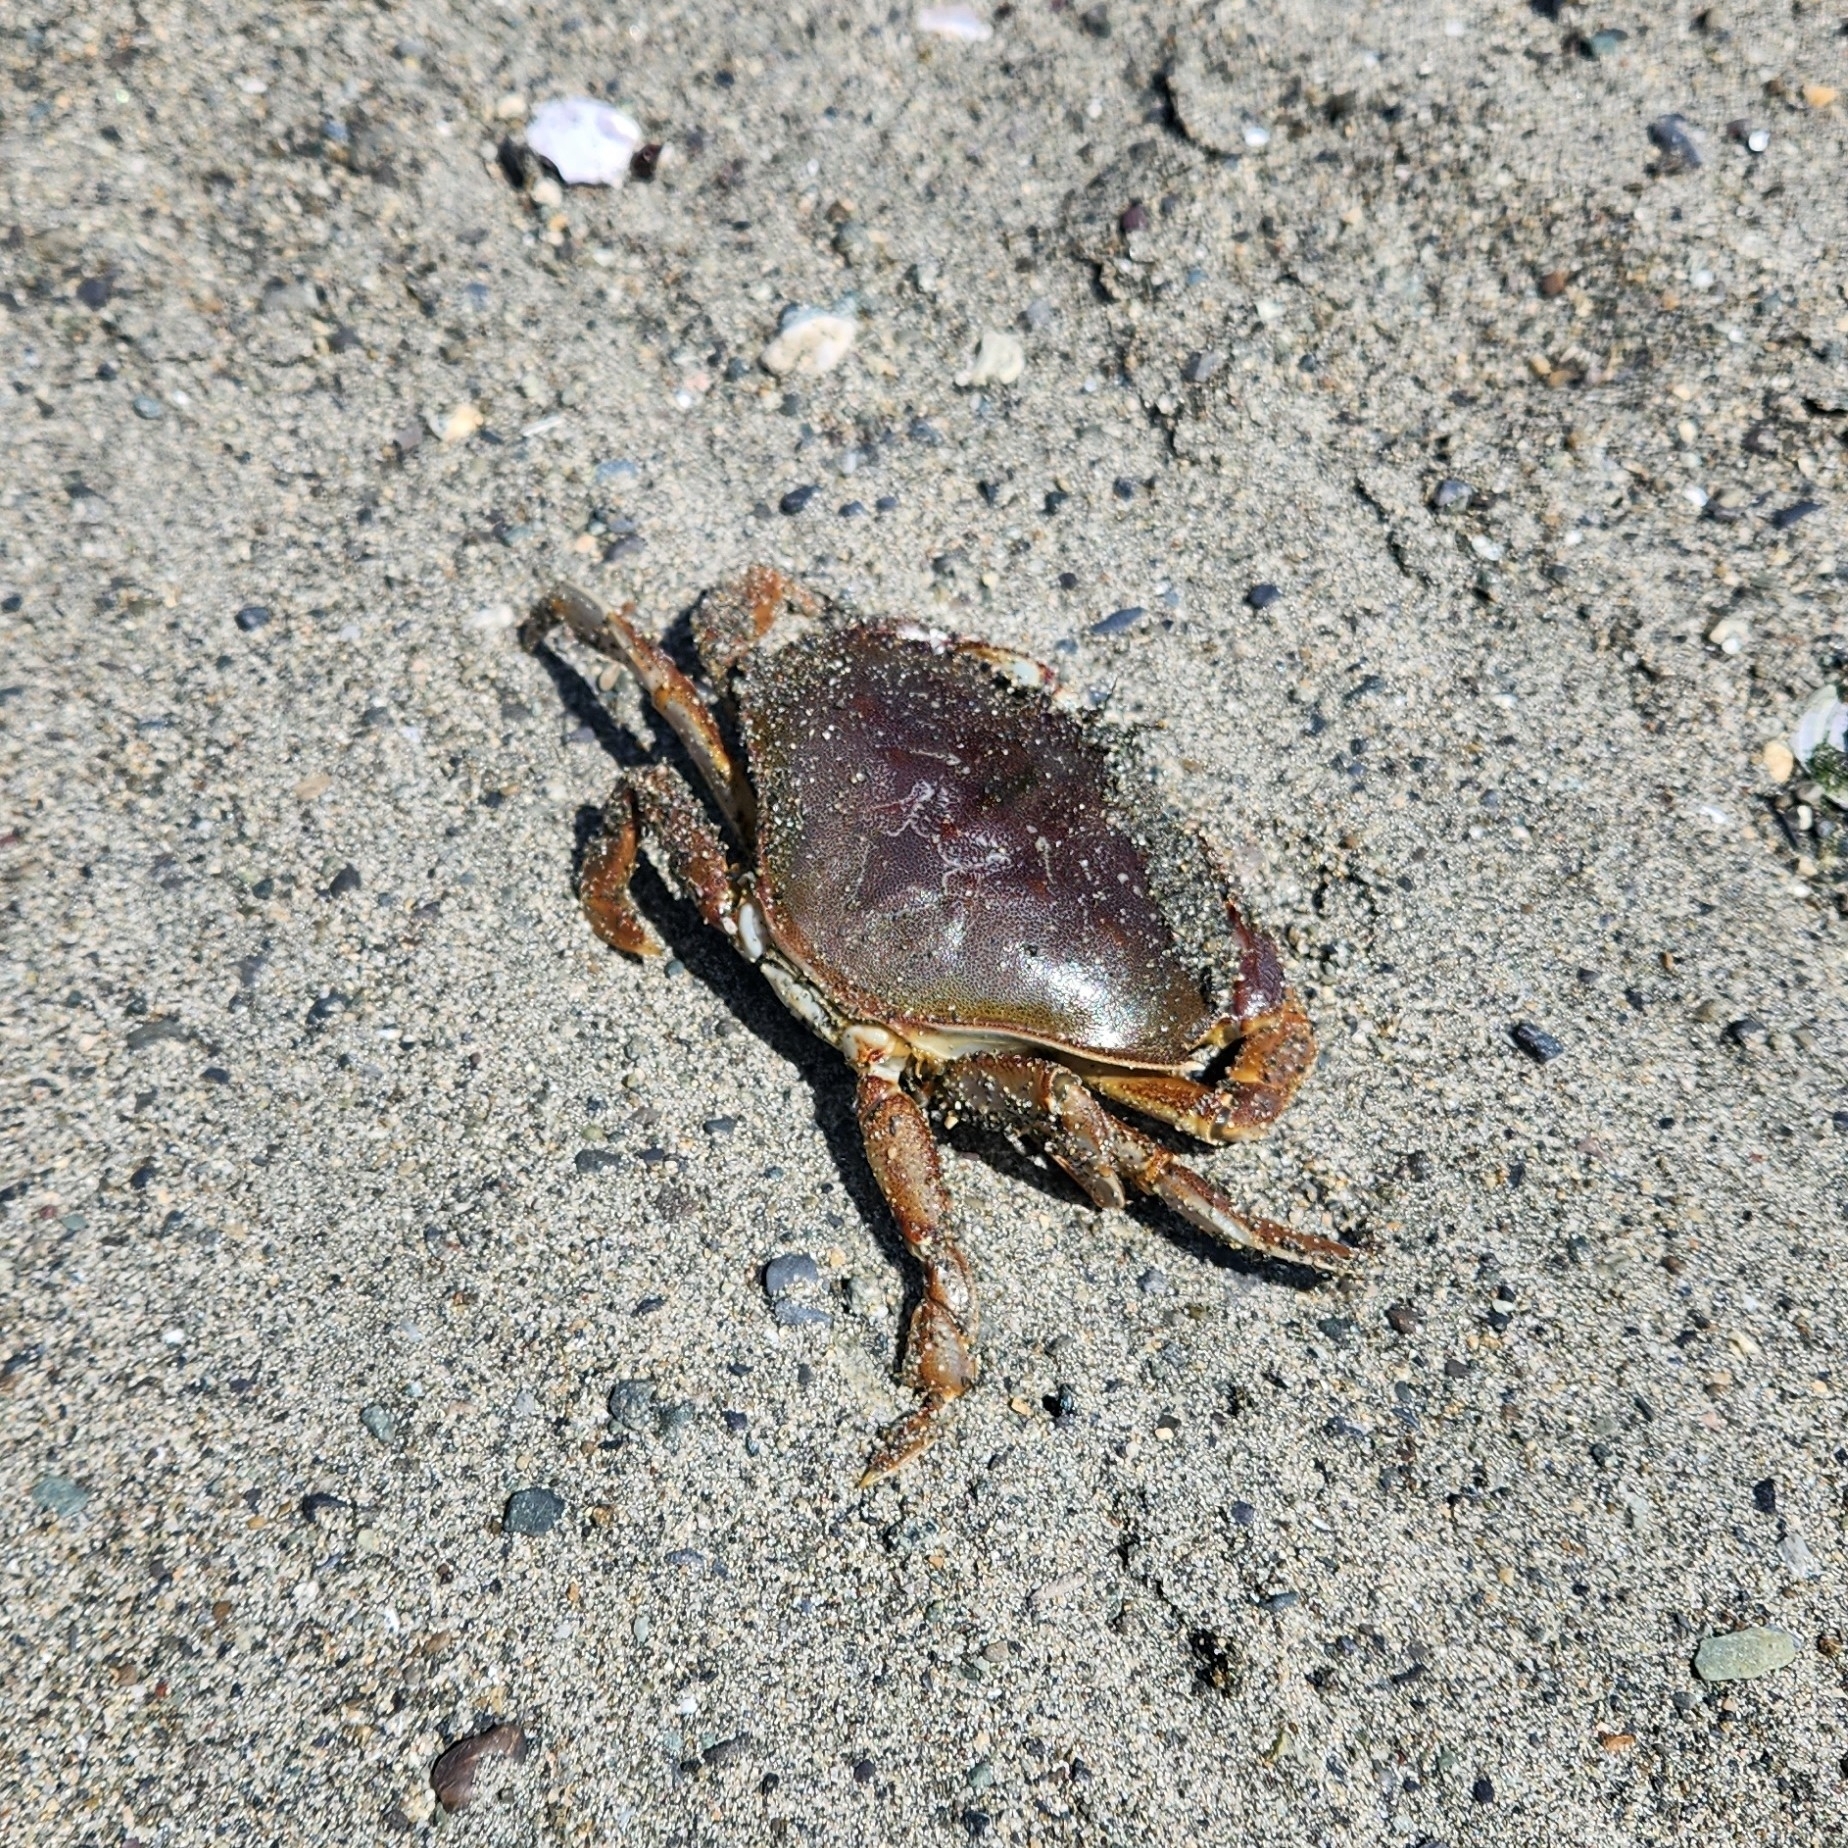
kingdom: Animalia
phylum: Arthropoda
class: Malacostraca
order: Decapoda
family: Cancridae
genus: Metacarcinus
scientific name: Metacarcinus magister
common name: Californian crab
